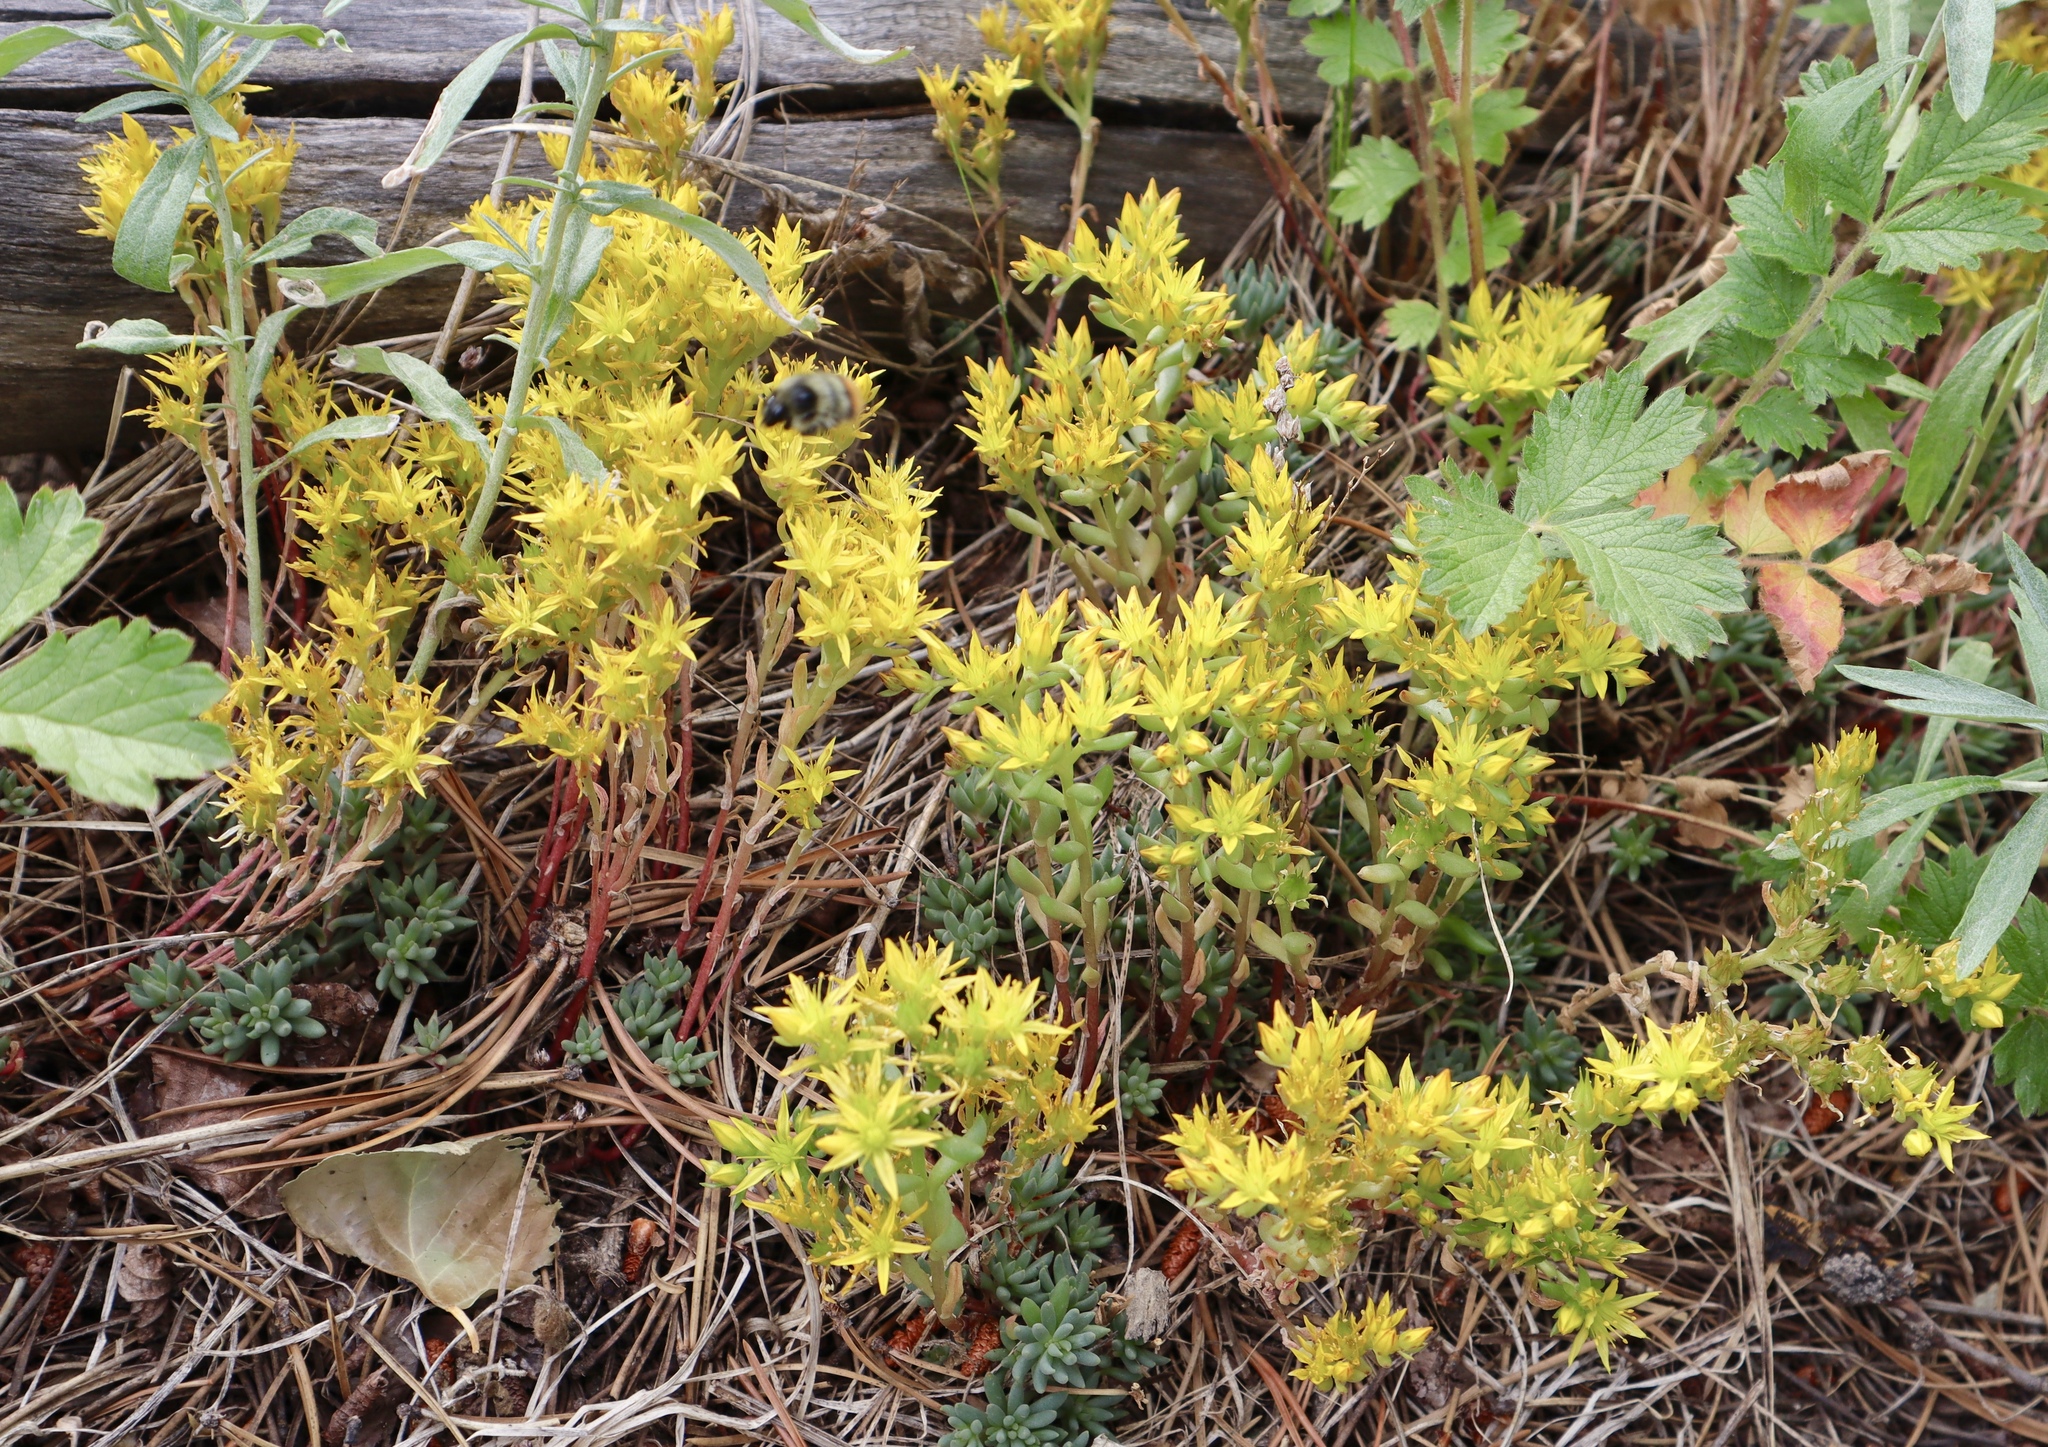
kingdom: Plantae
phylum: Tracheophyta
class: Magnoliopsida
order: Saxifragales
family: Crassulaceae
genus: Sedum
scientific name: Sedum lanceolatum
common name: Common stonecrop
